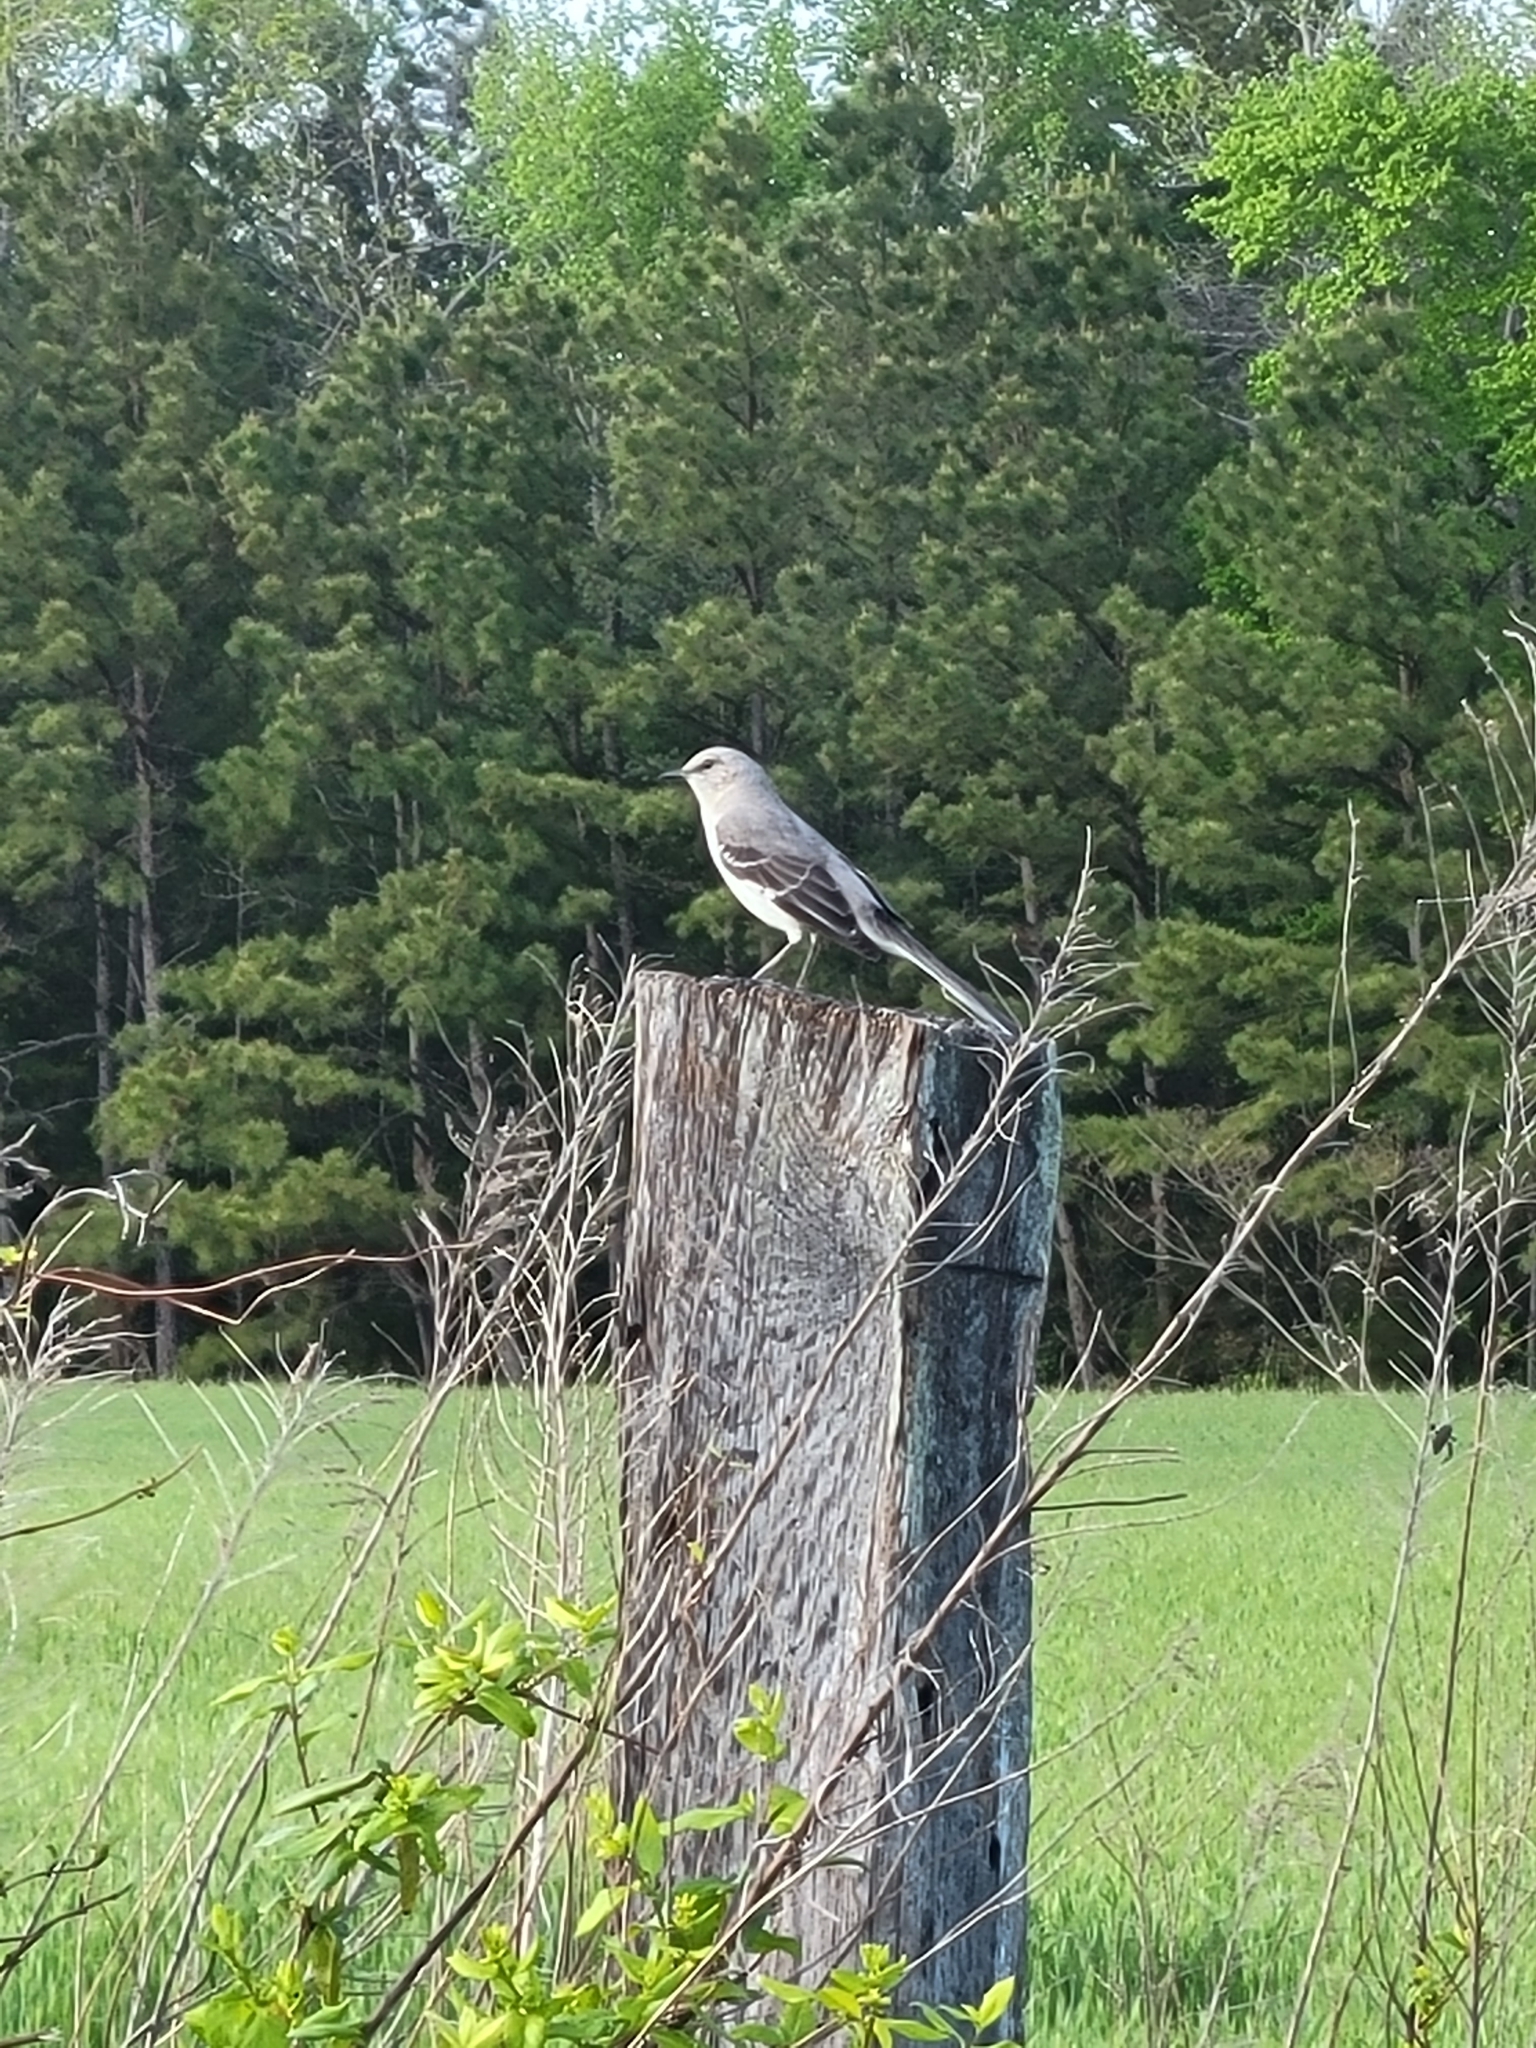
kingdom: Animalia
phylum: Chordata
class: Aves
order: Passeriformes
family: Mimidae
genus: Mimus
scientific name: Mimus polyglottos
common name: Northern mockingbird
